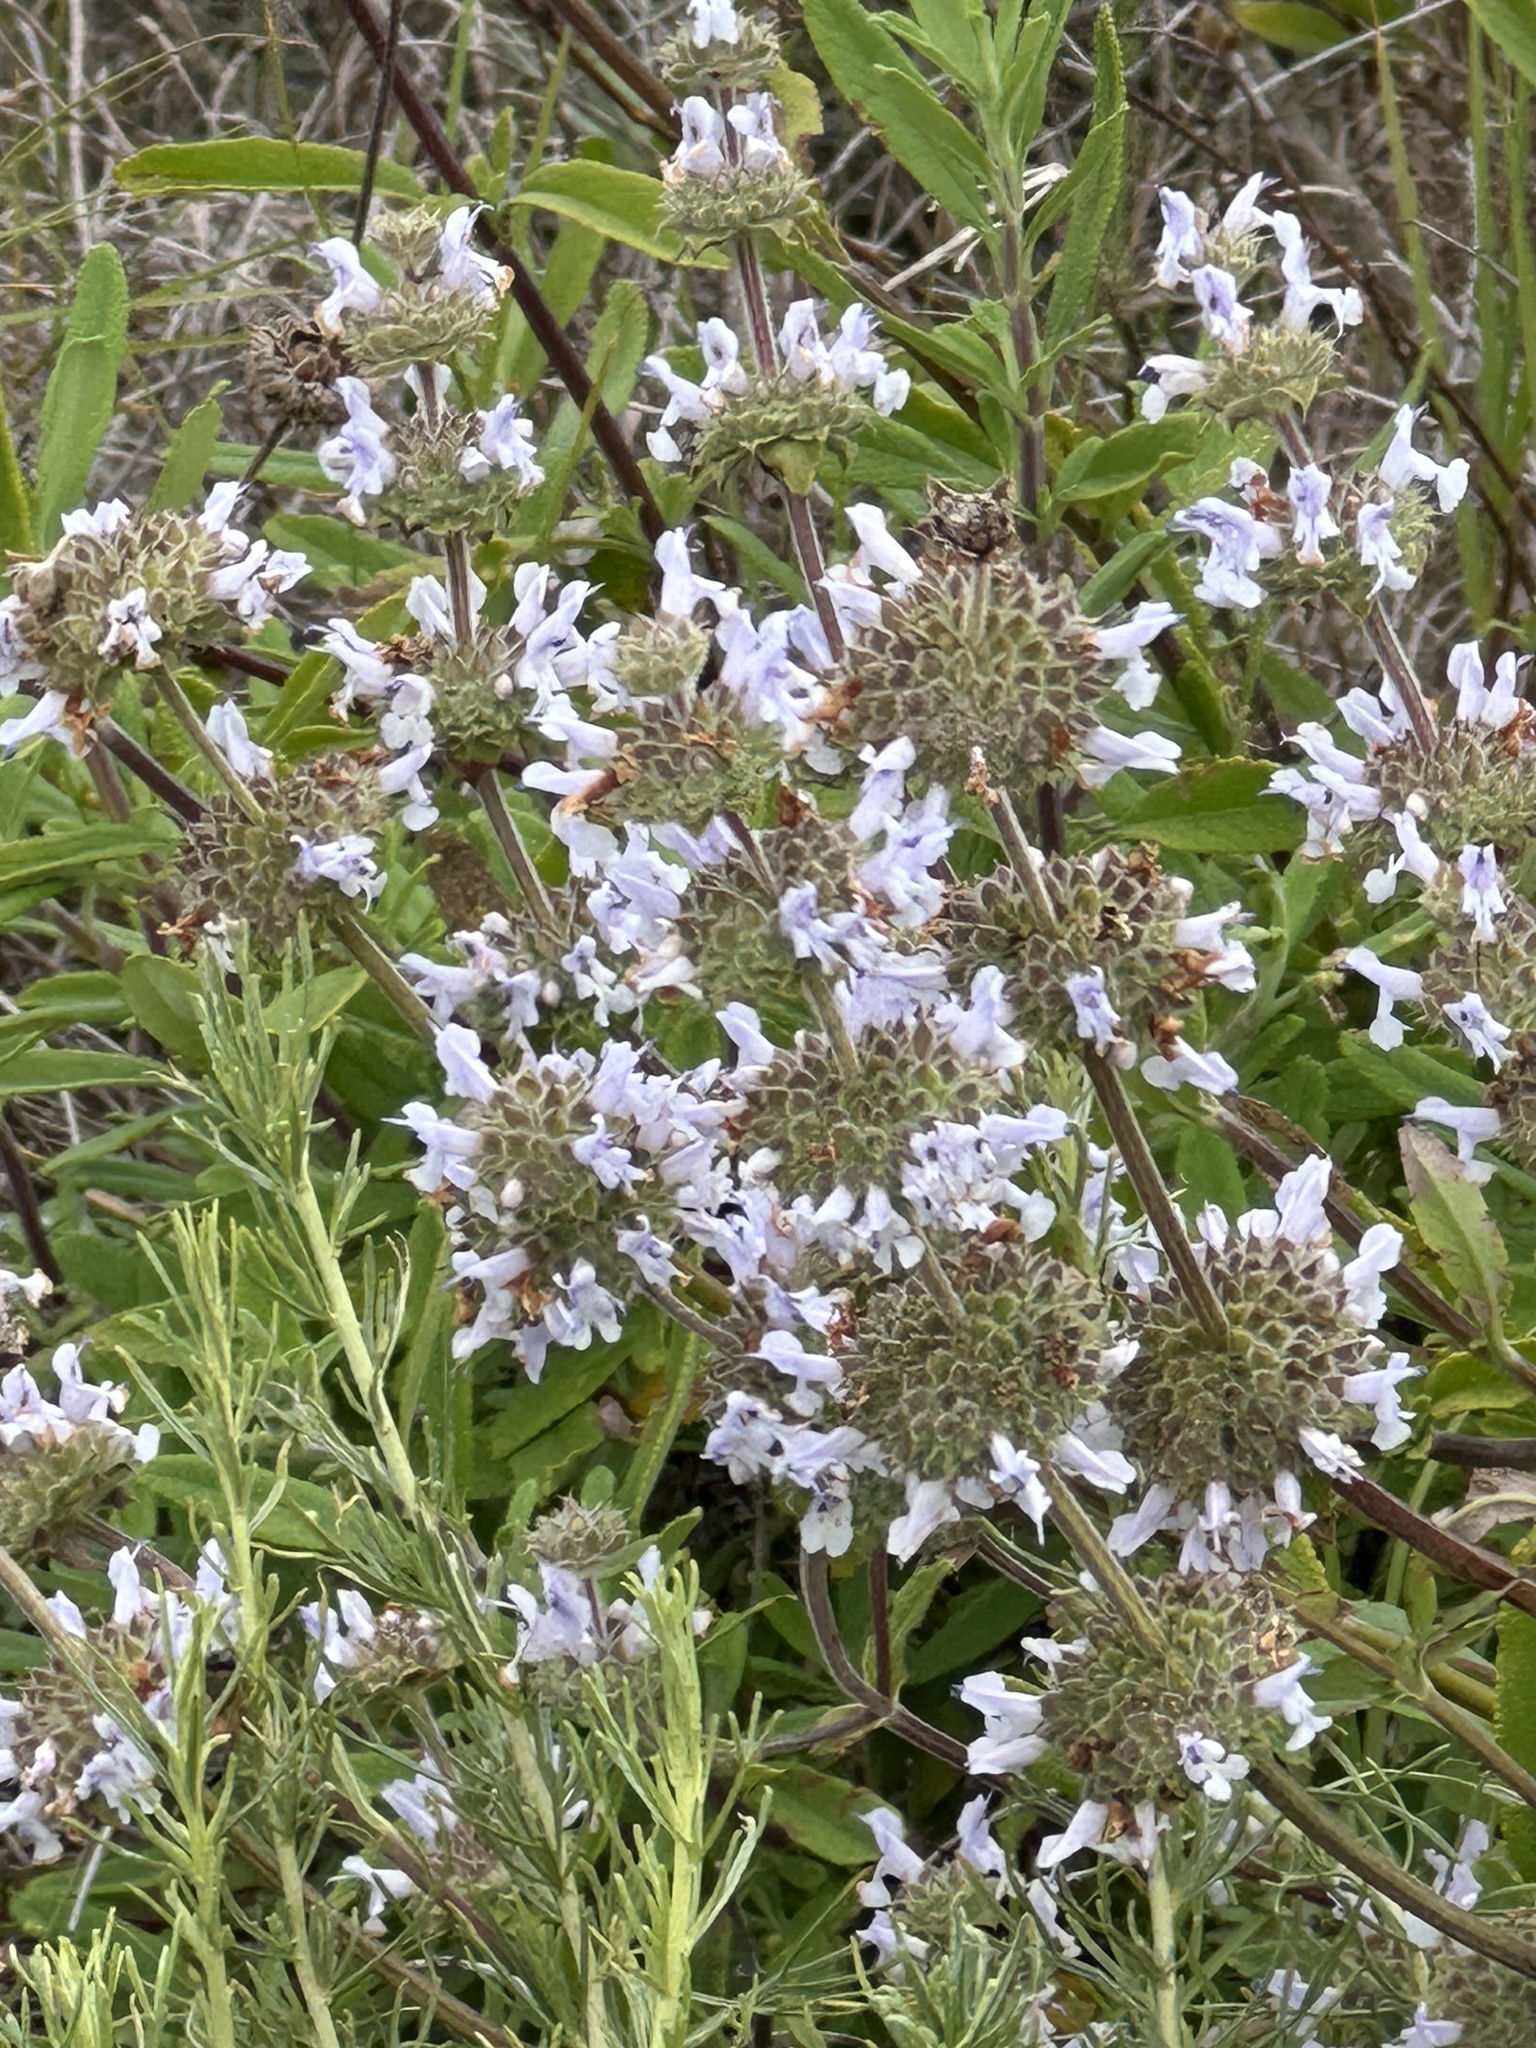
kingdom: Plantae
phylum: Tracheophyta
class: Magnoliopsida
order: Lamiales
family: Lamiaceae
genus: Salvia
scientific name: Salvia mellifera
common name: Black sage
